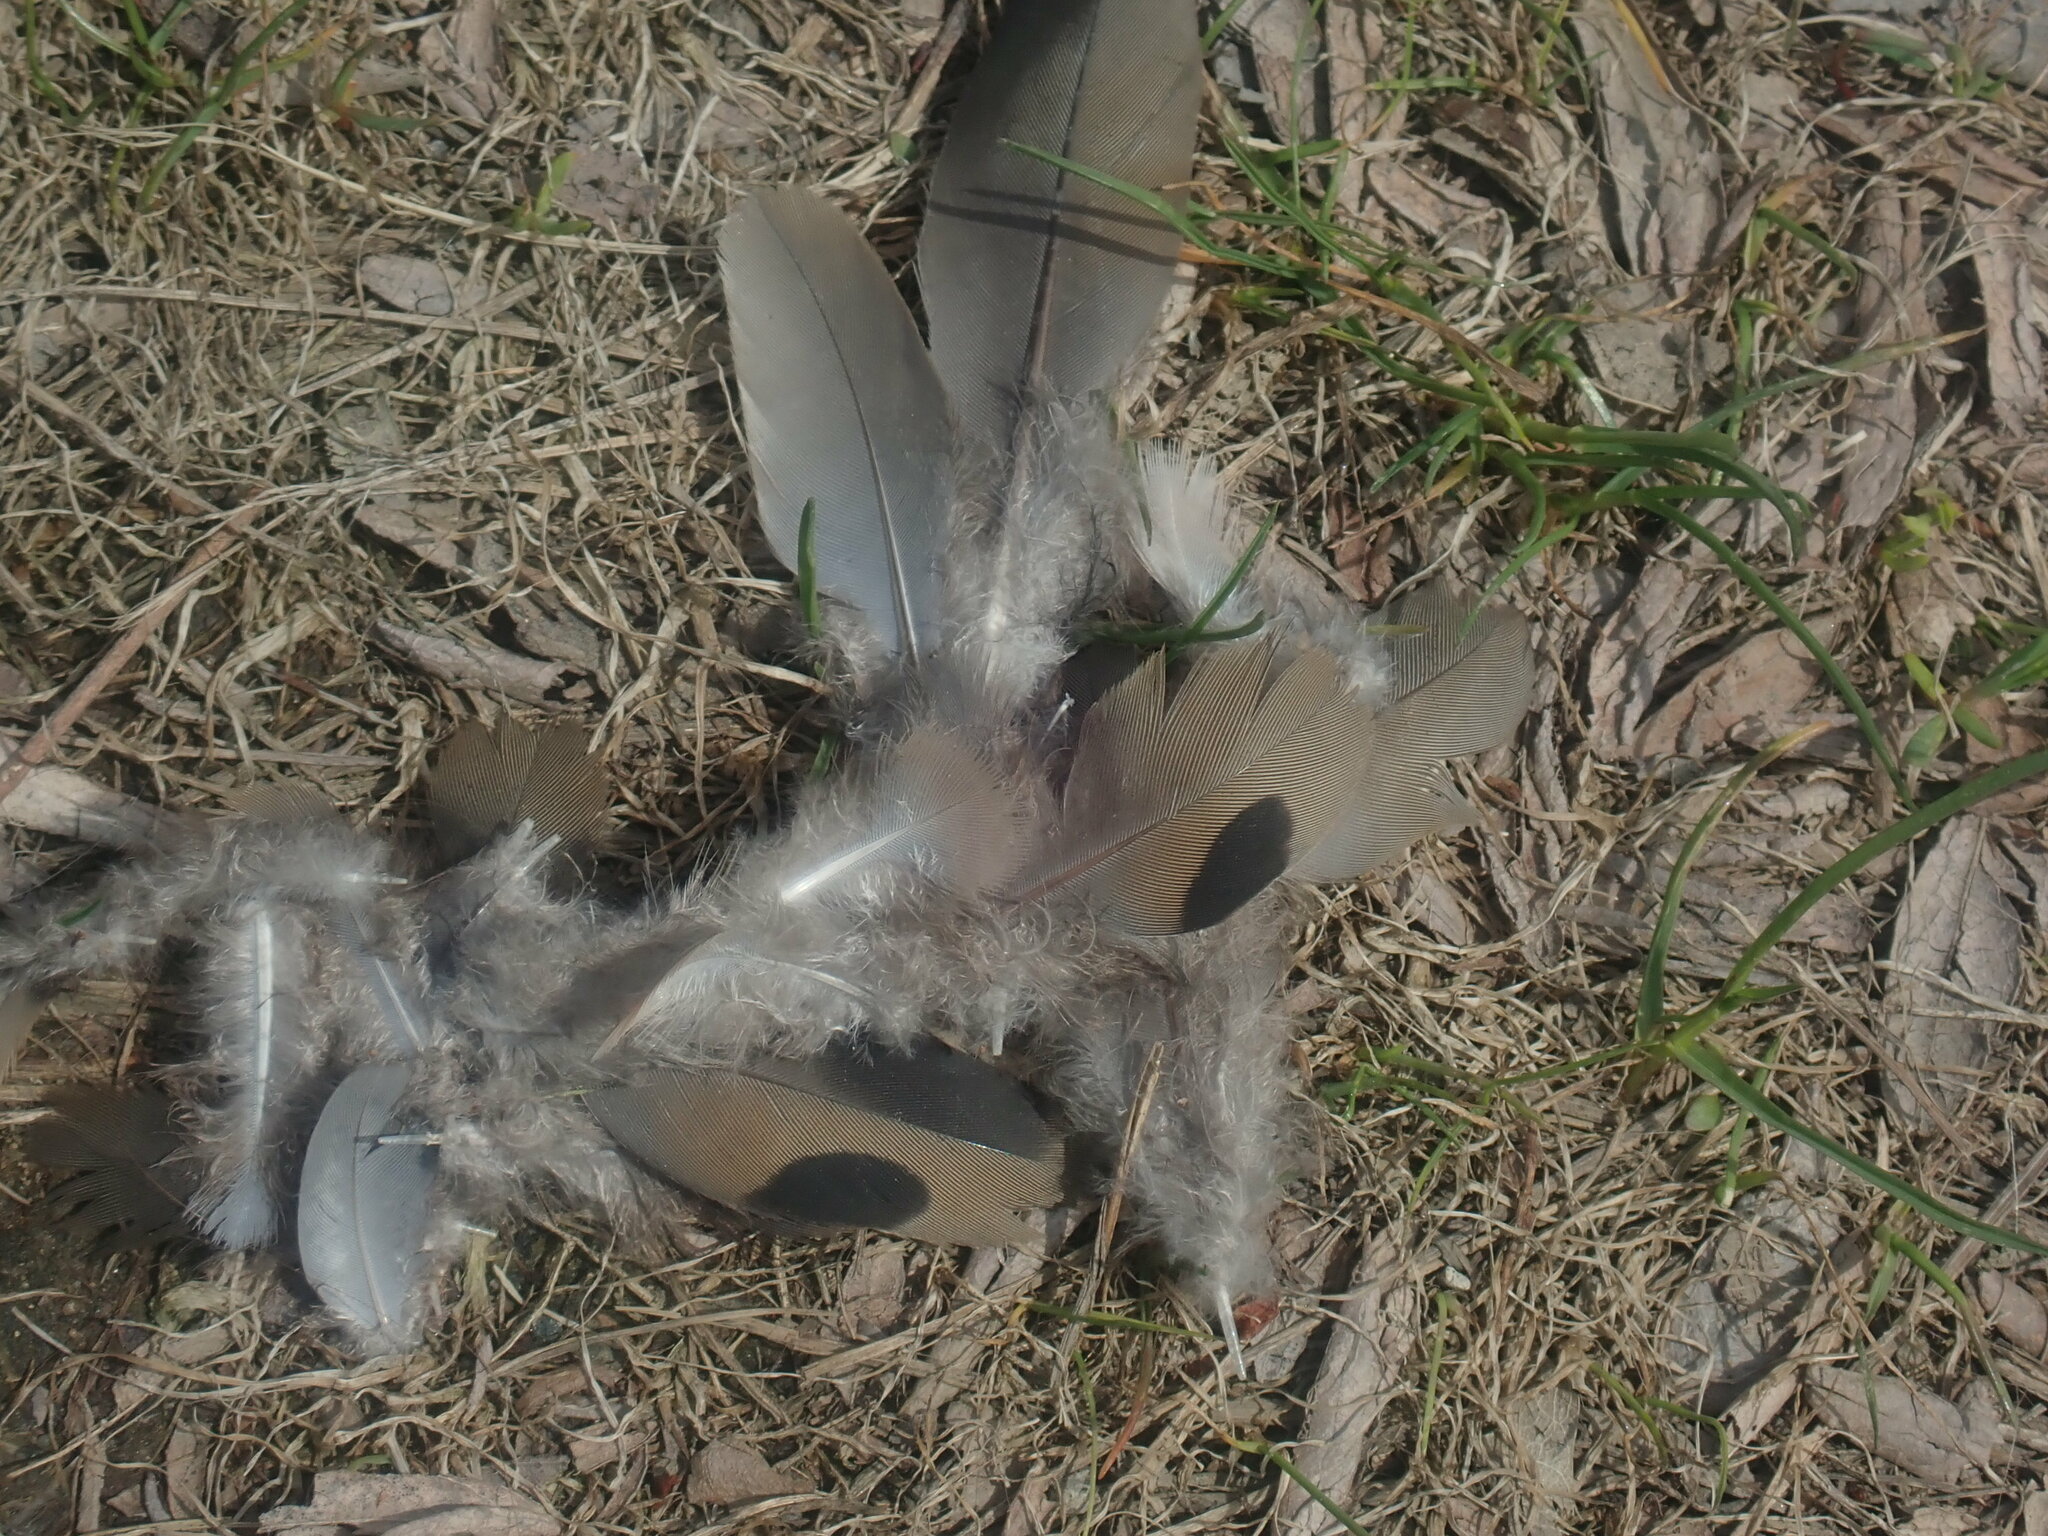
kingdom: Animalia
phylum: Chordata
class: Aves
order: Columbiformes
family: Columbidae
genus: Zenaida
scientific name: Zenaida macroura
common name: Mourning dove
